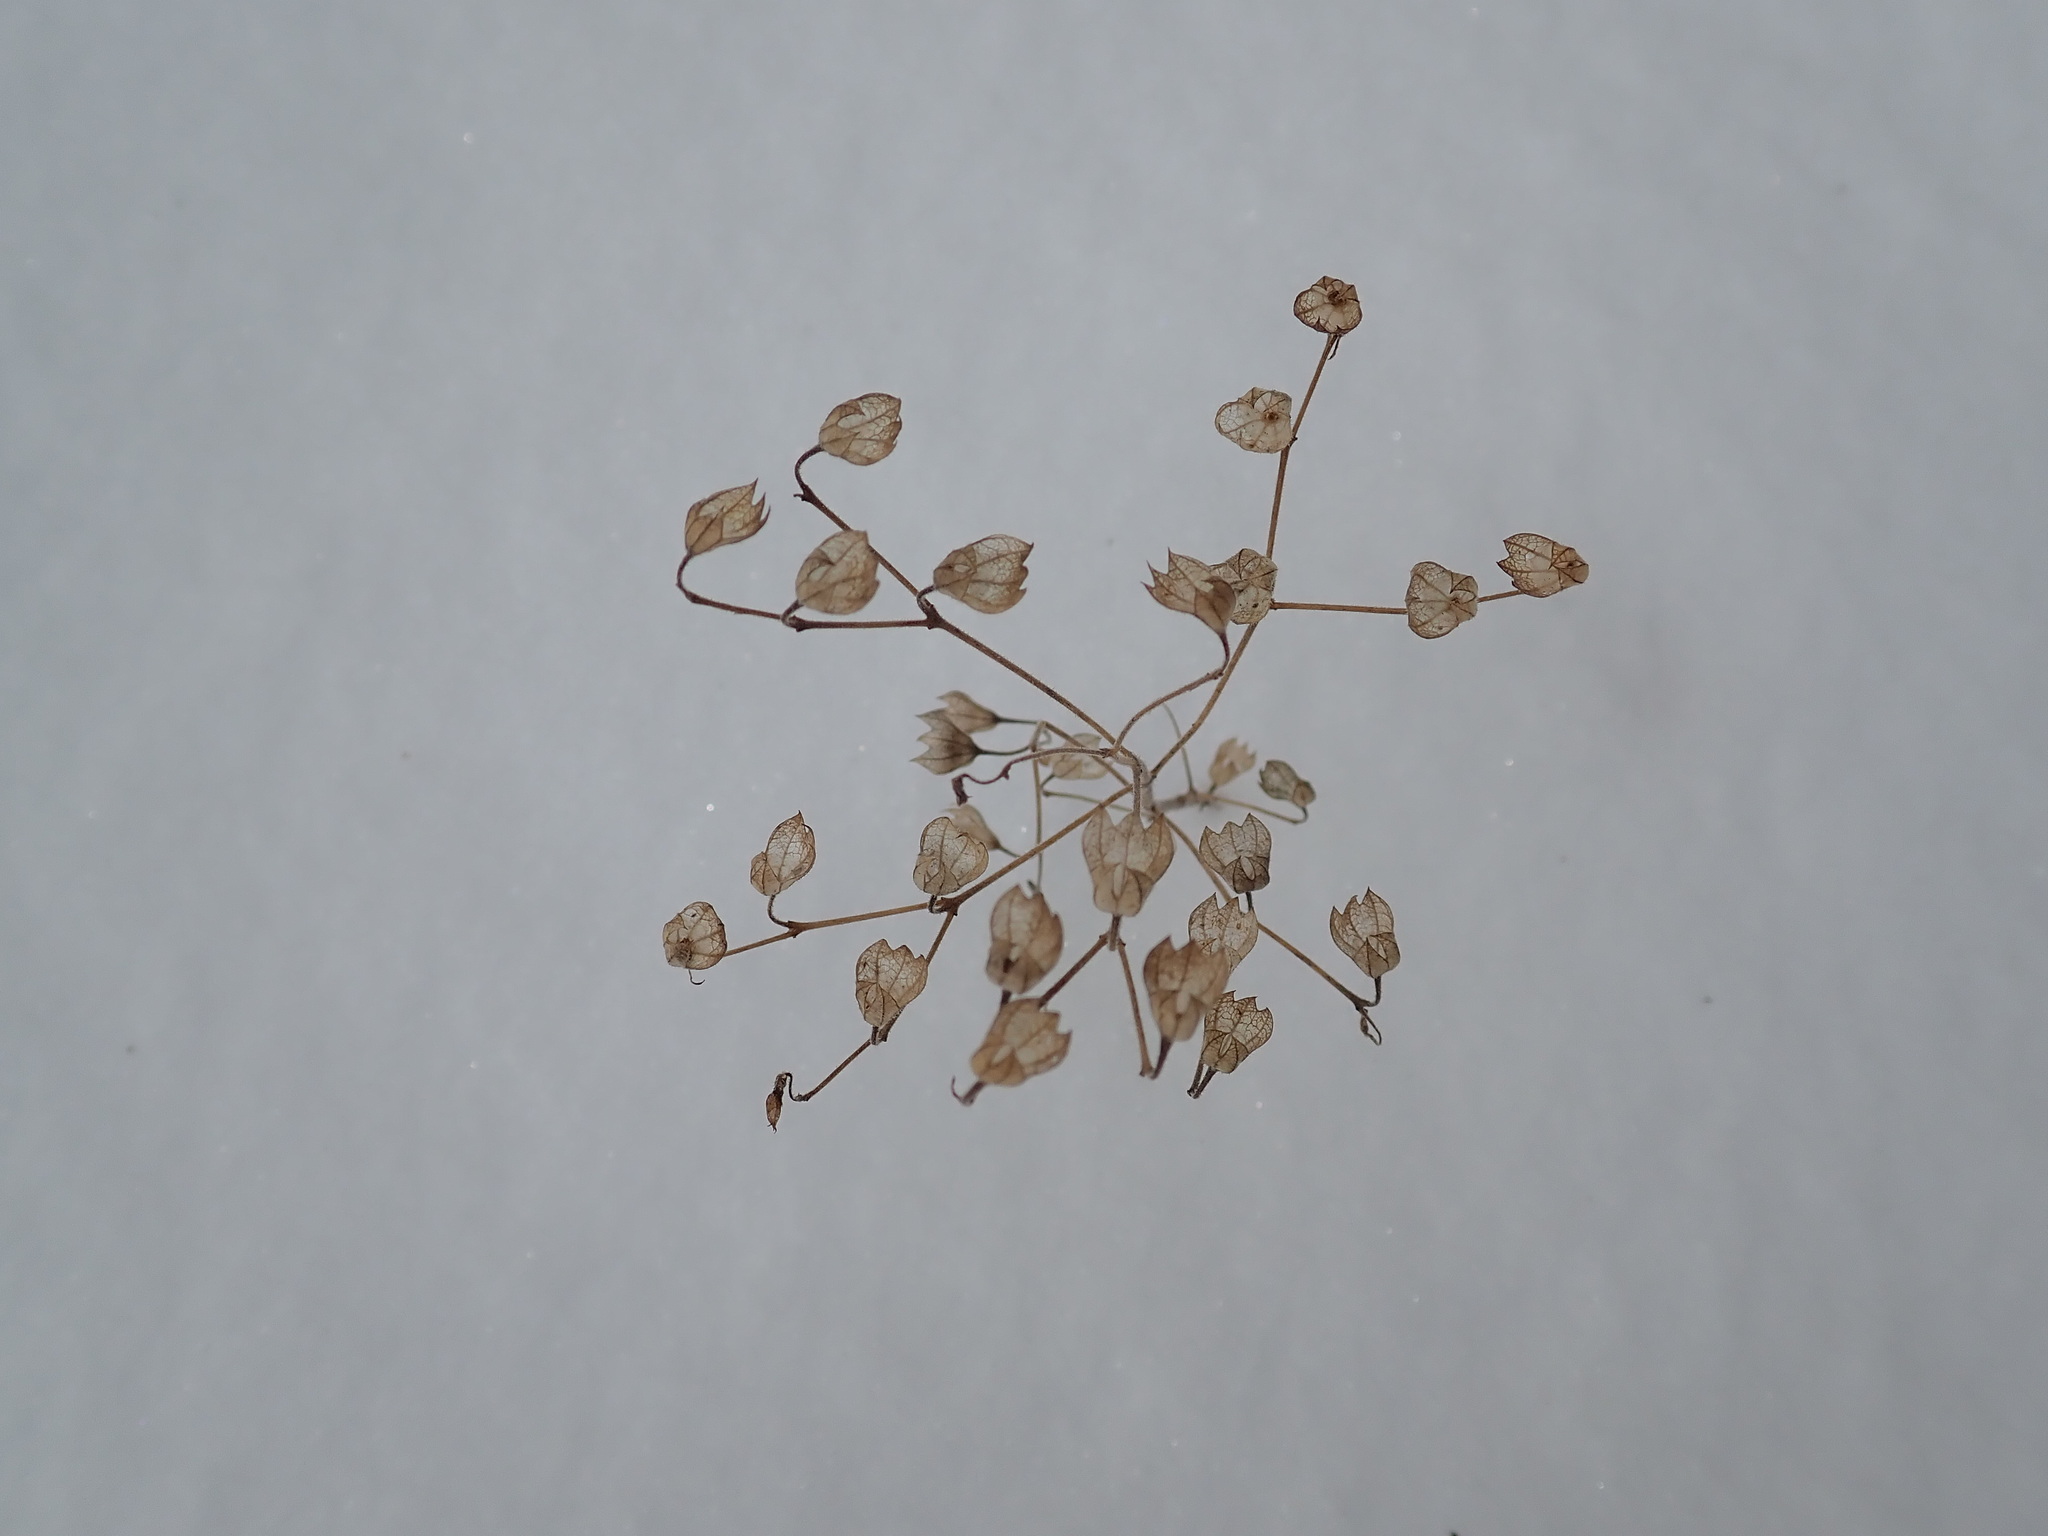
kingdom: Plantae
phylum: Tracheophyta
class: Magnoliopsida
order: Lamiales
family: Lamiaceae
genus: Trichostema
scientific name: Trichostema dichotomum
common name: Bastard pennyroyal
